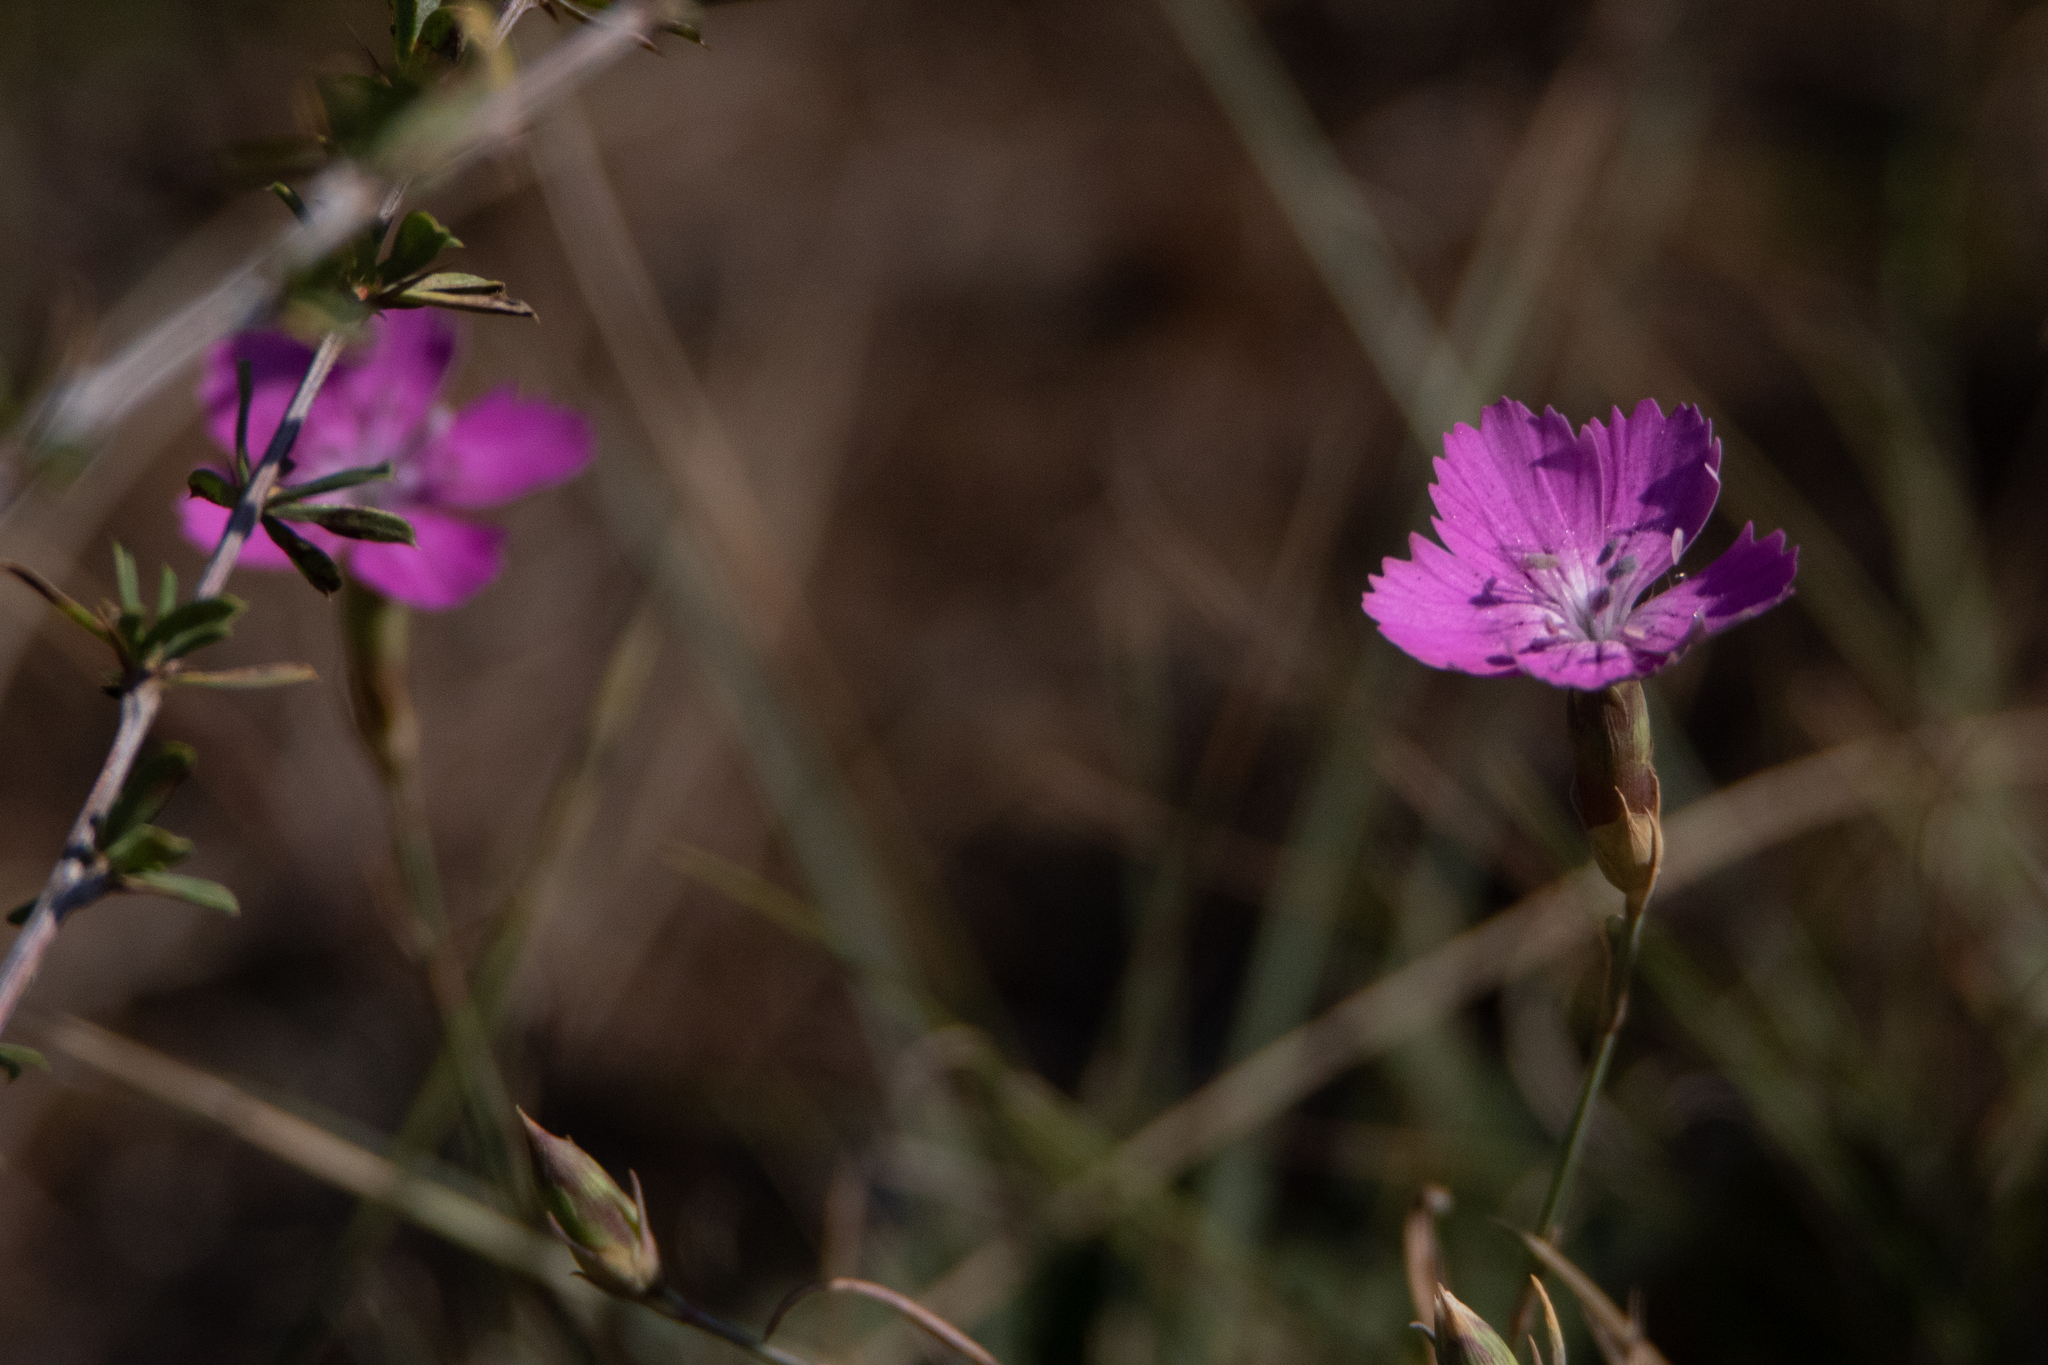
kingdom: Plantae
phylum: Tracheophyta
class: Magnoliopsida
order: Caryophyllales
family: Caryophyllaceae
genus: Dianthus
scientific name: Dianthus chinensis
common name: Rainbow pink
